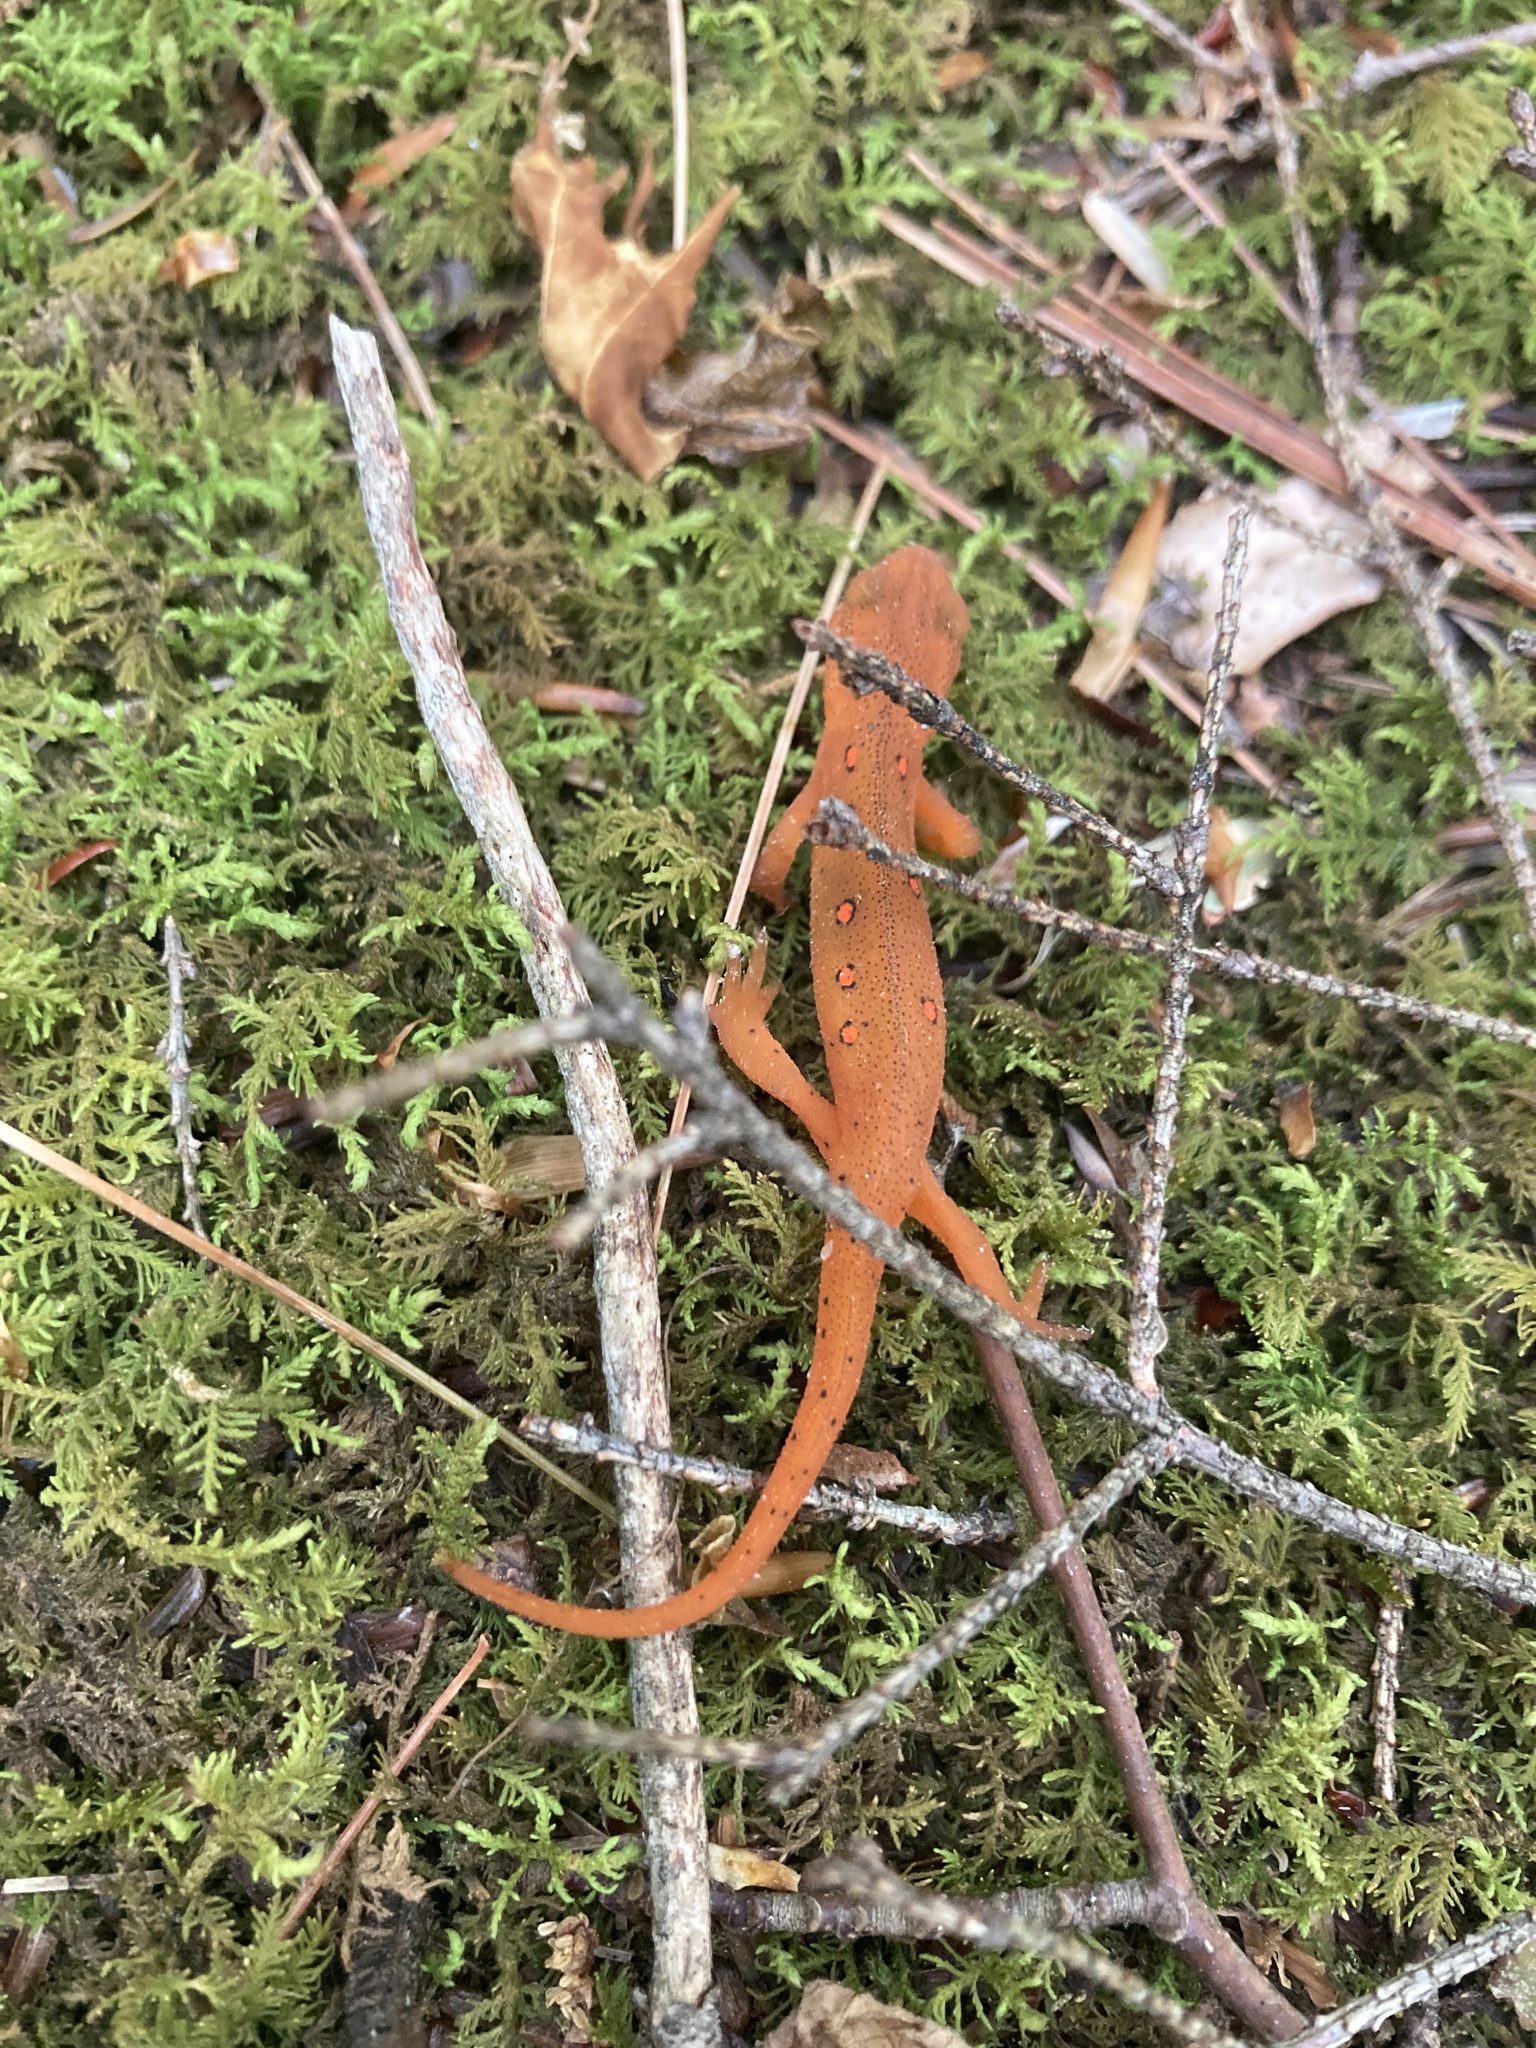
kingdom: Animalia
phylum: Chordata
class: Amphibia
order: Caudata
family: Salamandridae
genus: Notophthalmus
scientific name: Notophthalmus viridescens
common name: Eastern newt
